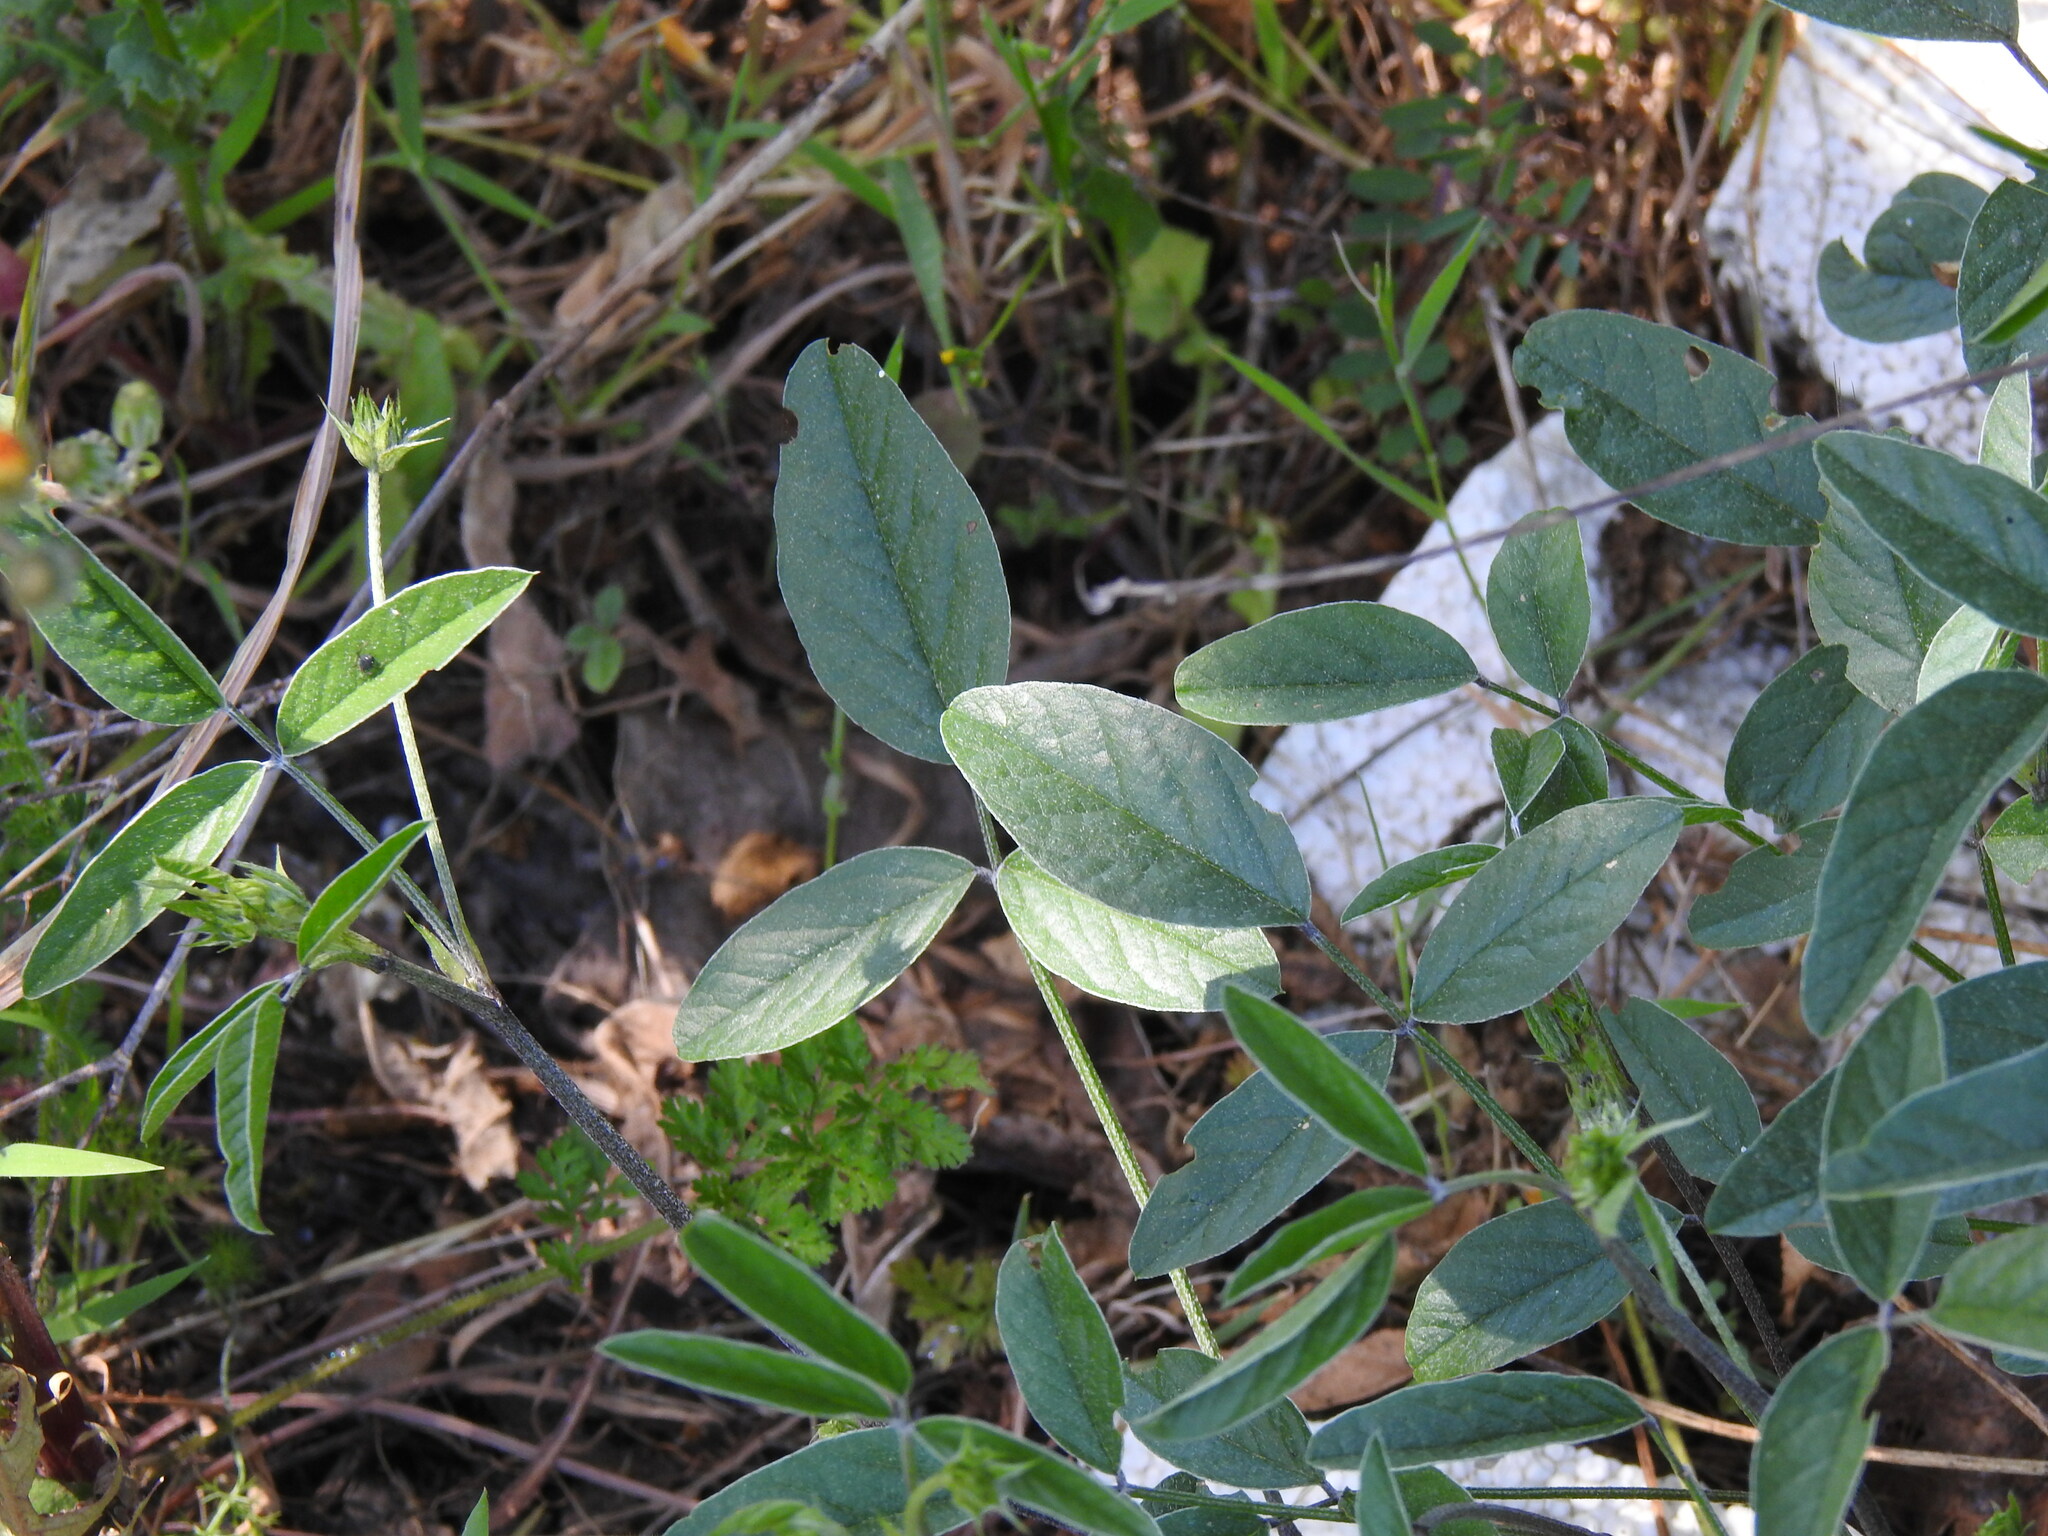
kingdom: Plantae
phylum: Tracheophyta
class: Magnoliopsida
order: Fabales
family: Fabaceae
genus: Bituminaria
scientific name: Bituminaria bituminosa
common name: Arabian pea
